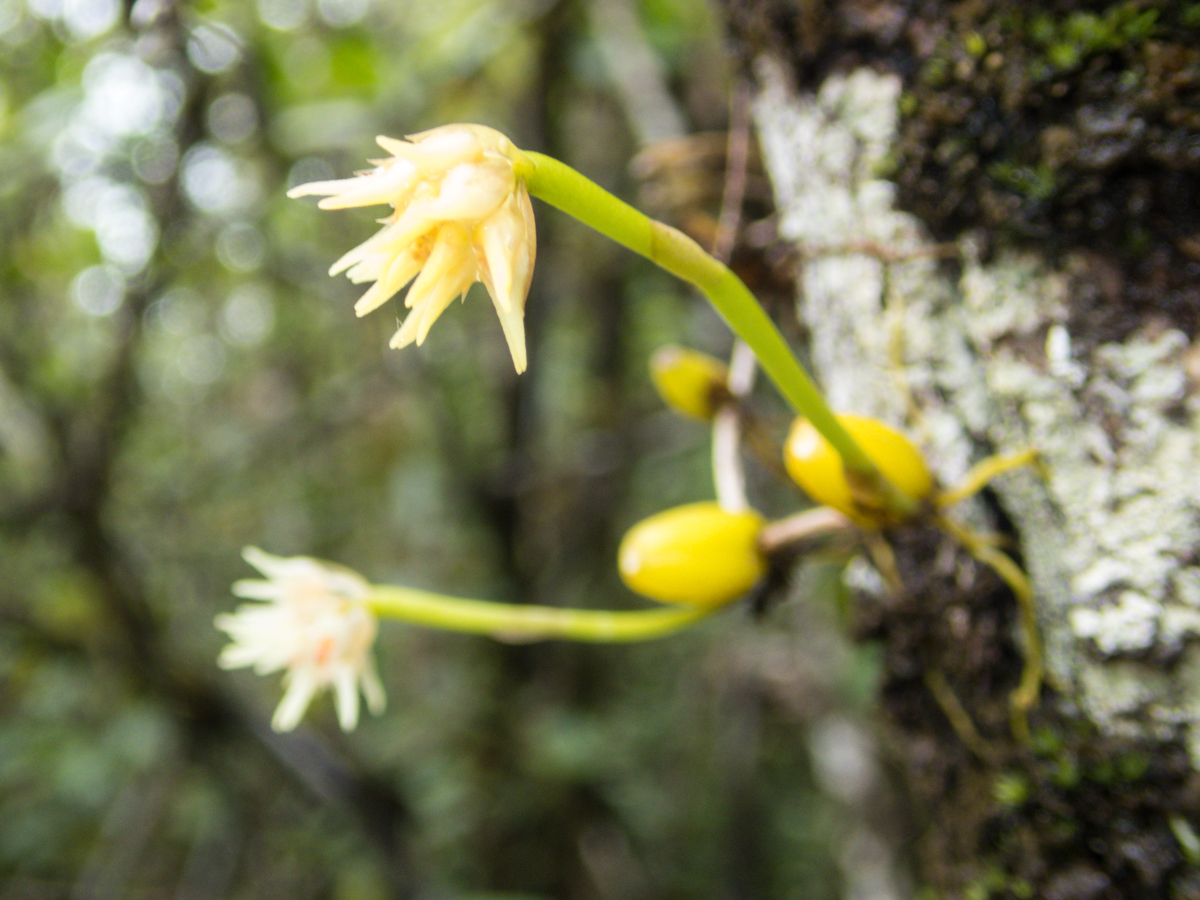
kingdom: Plantae
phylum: Tracheophyta
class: Liliopsida
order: Asparagales
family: Orchidaceae
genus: Bulbophyllum
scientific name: Bulbophyllum odoratissimum
